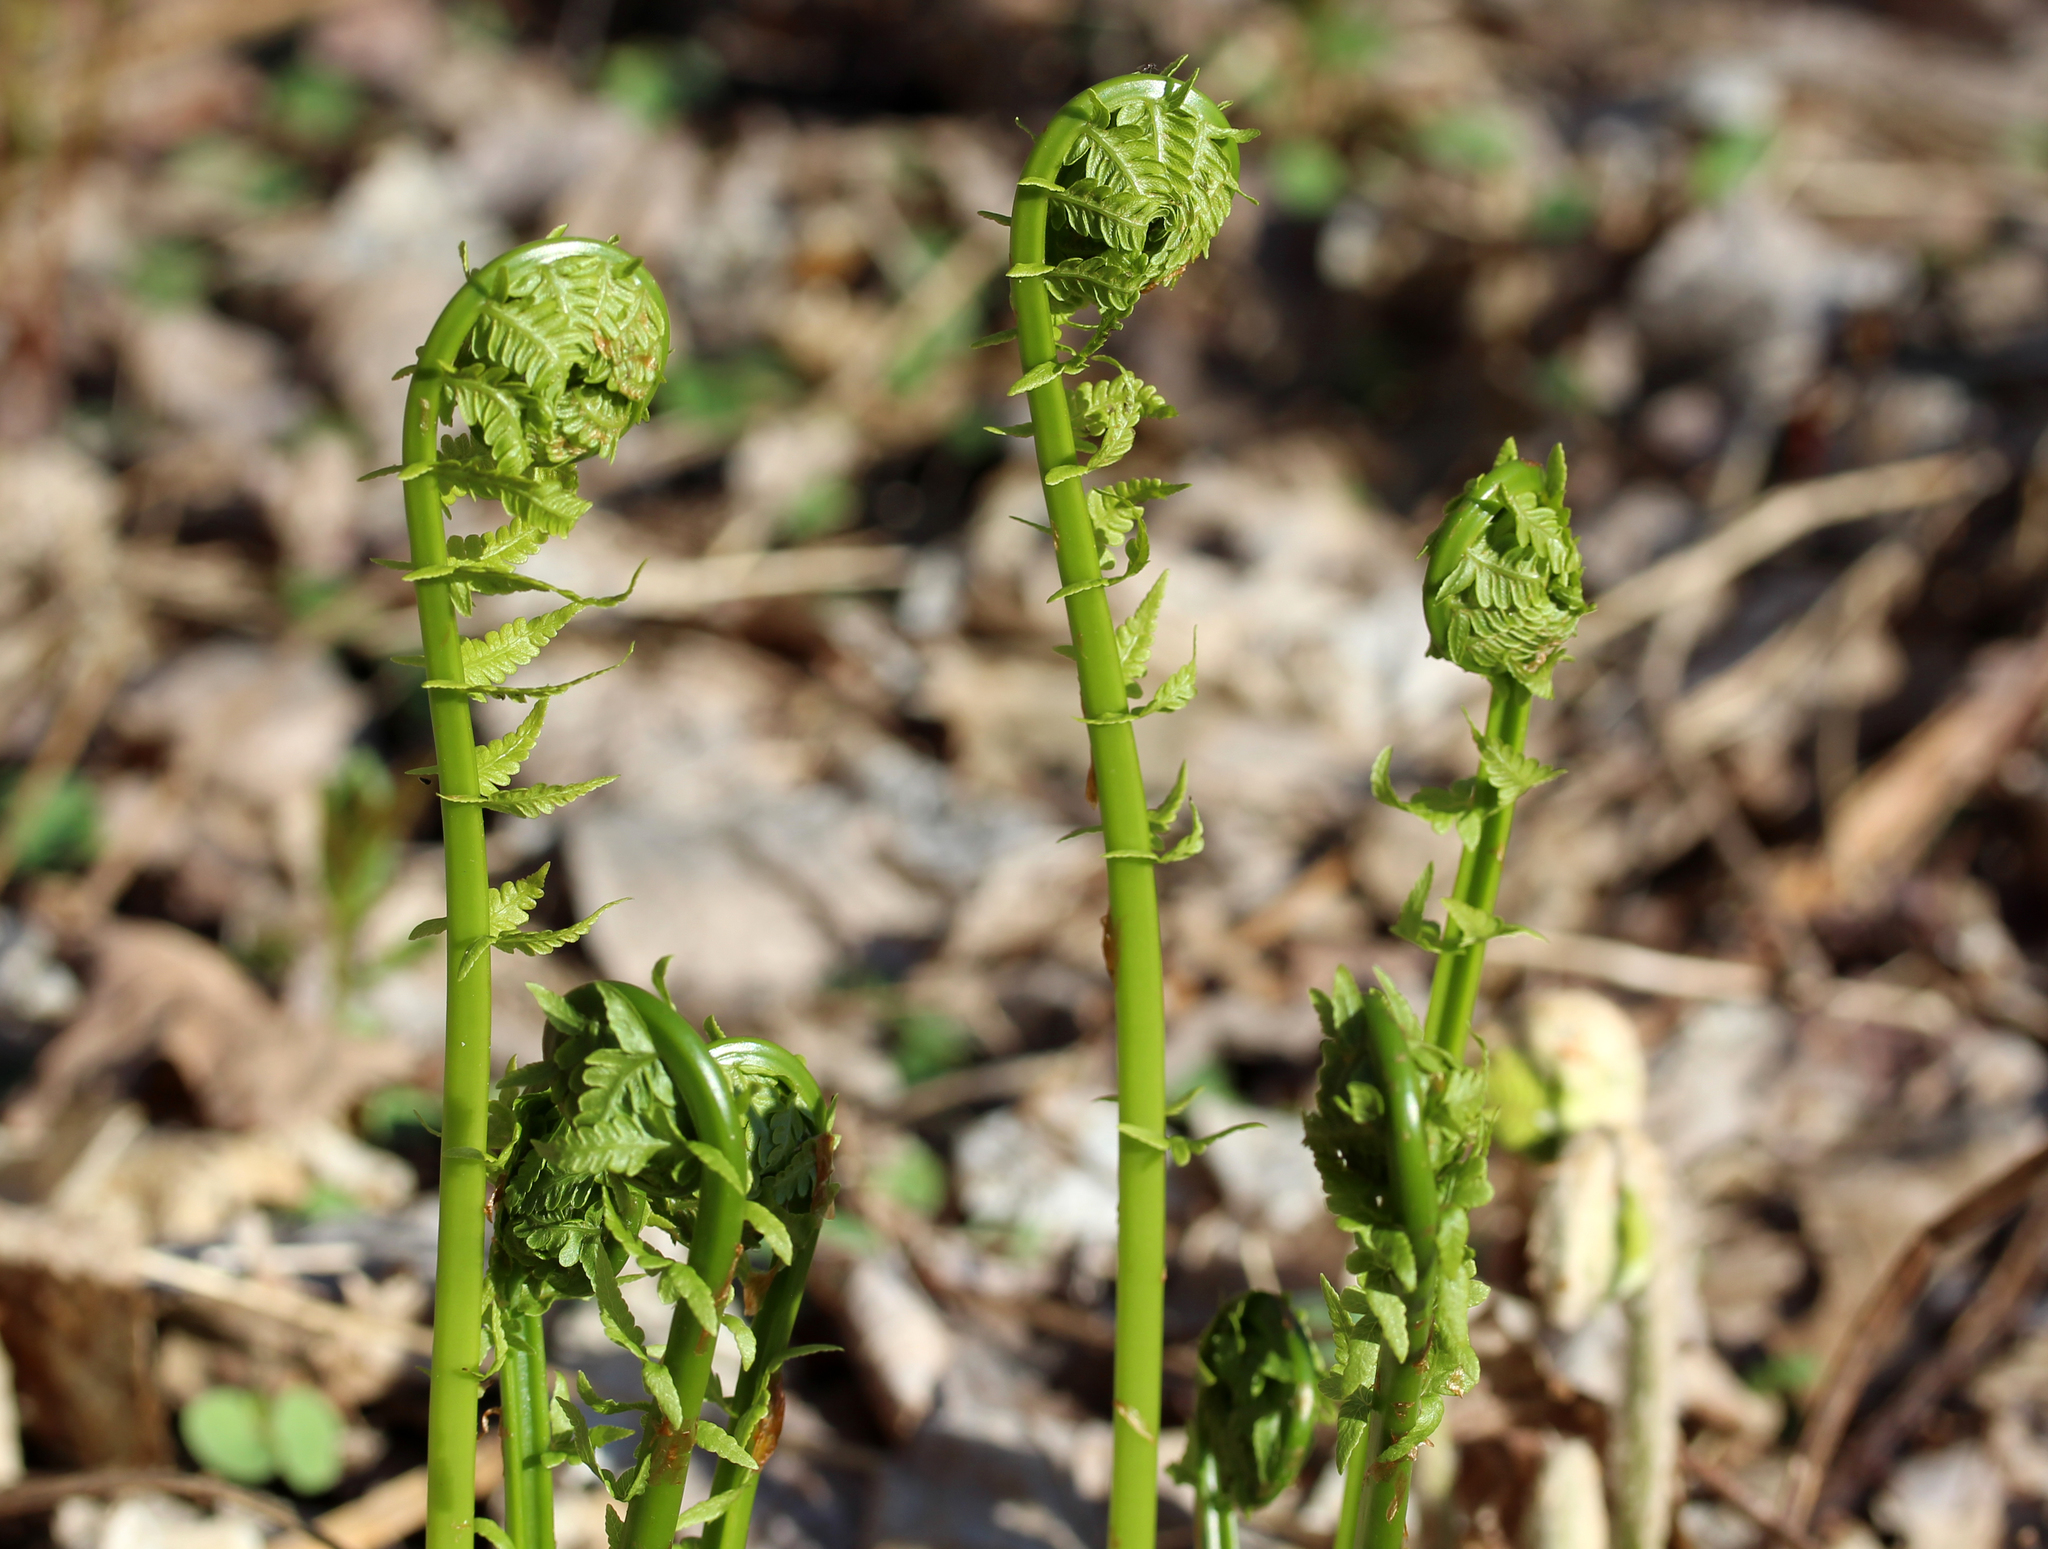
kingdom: Plantae
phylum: Tracheophyta
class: Polypodiopsida
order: Polypodiales
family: Onocleaceae
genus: Matteuccia
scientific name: Matteuccia struthiopteris
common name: Ostrich fern
